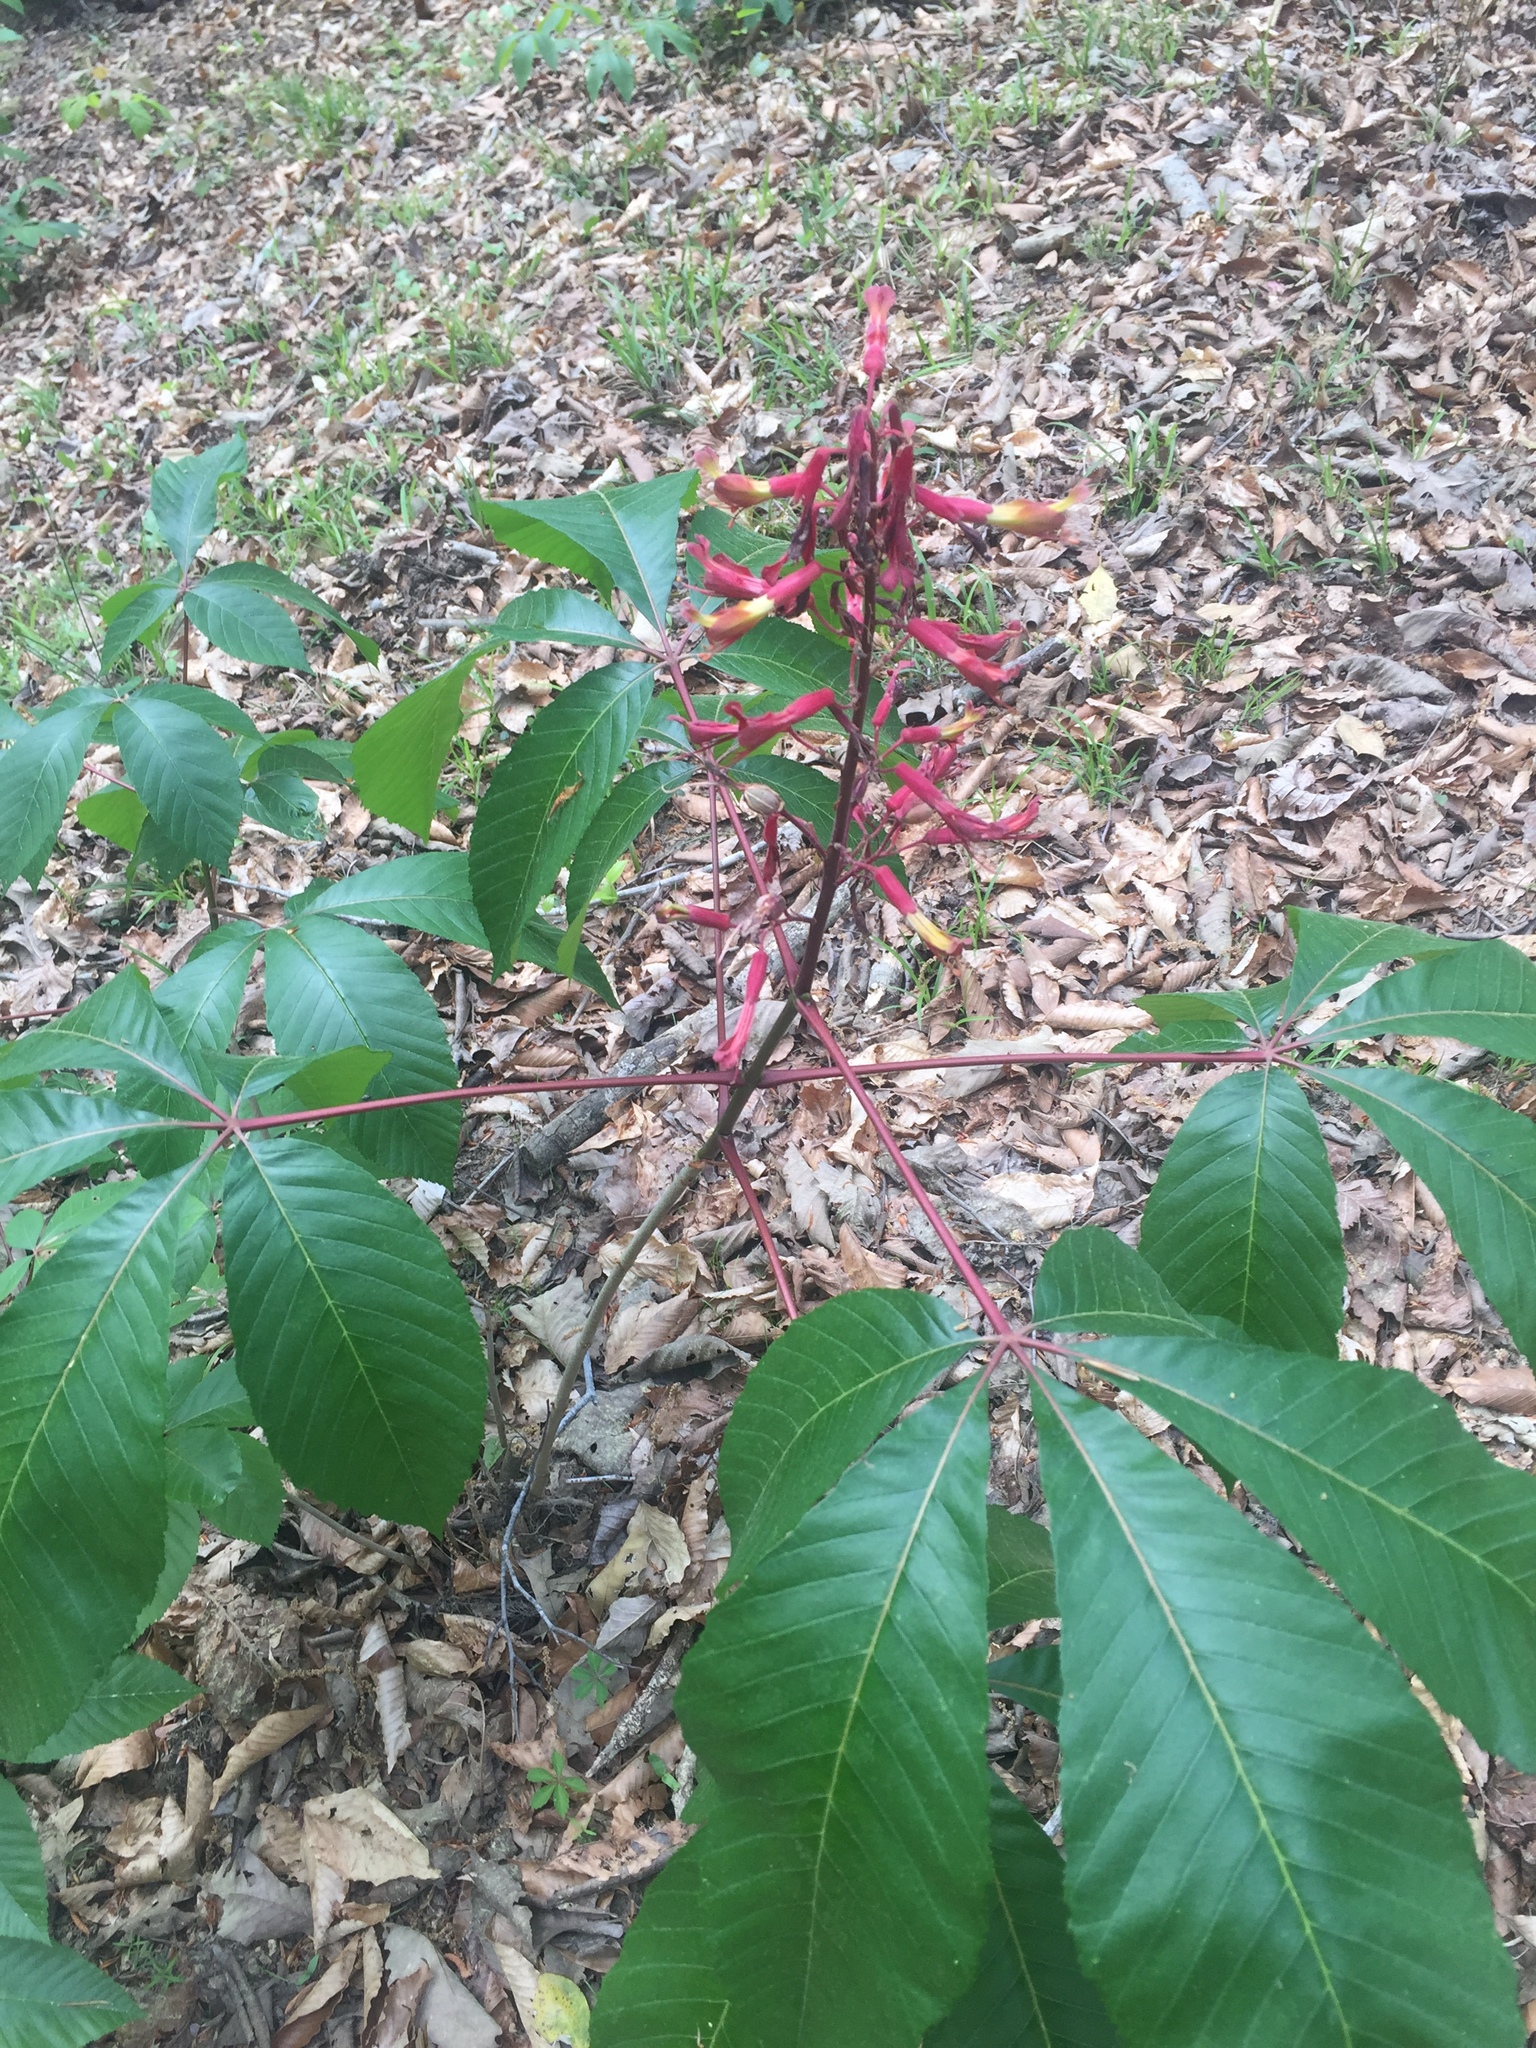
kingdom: Plantae
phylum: Tracheophyta
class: Magnoliopsida
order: Sapindales
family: Sapindaceae
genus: Aesculus
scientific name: Aesculus pavia
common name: Red buckeye
